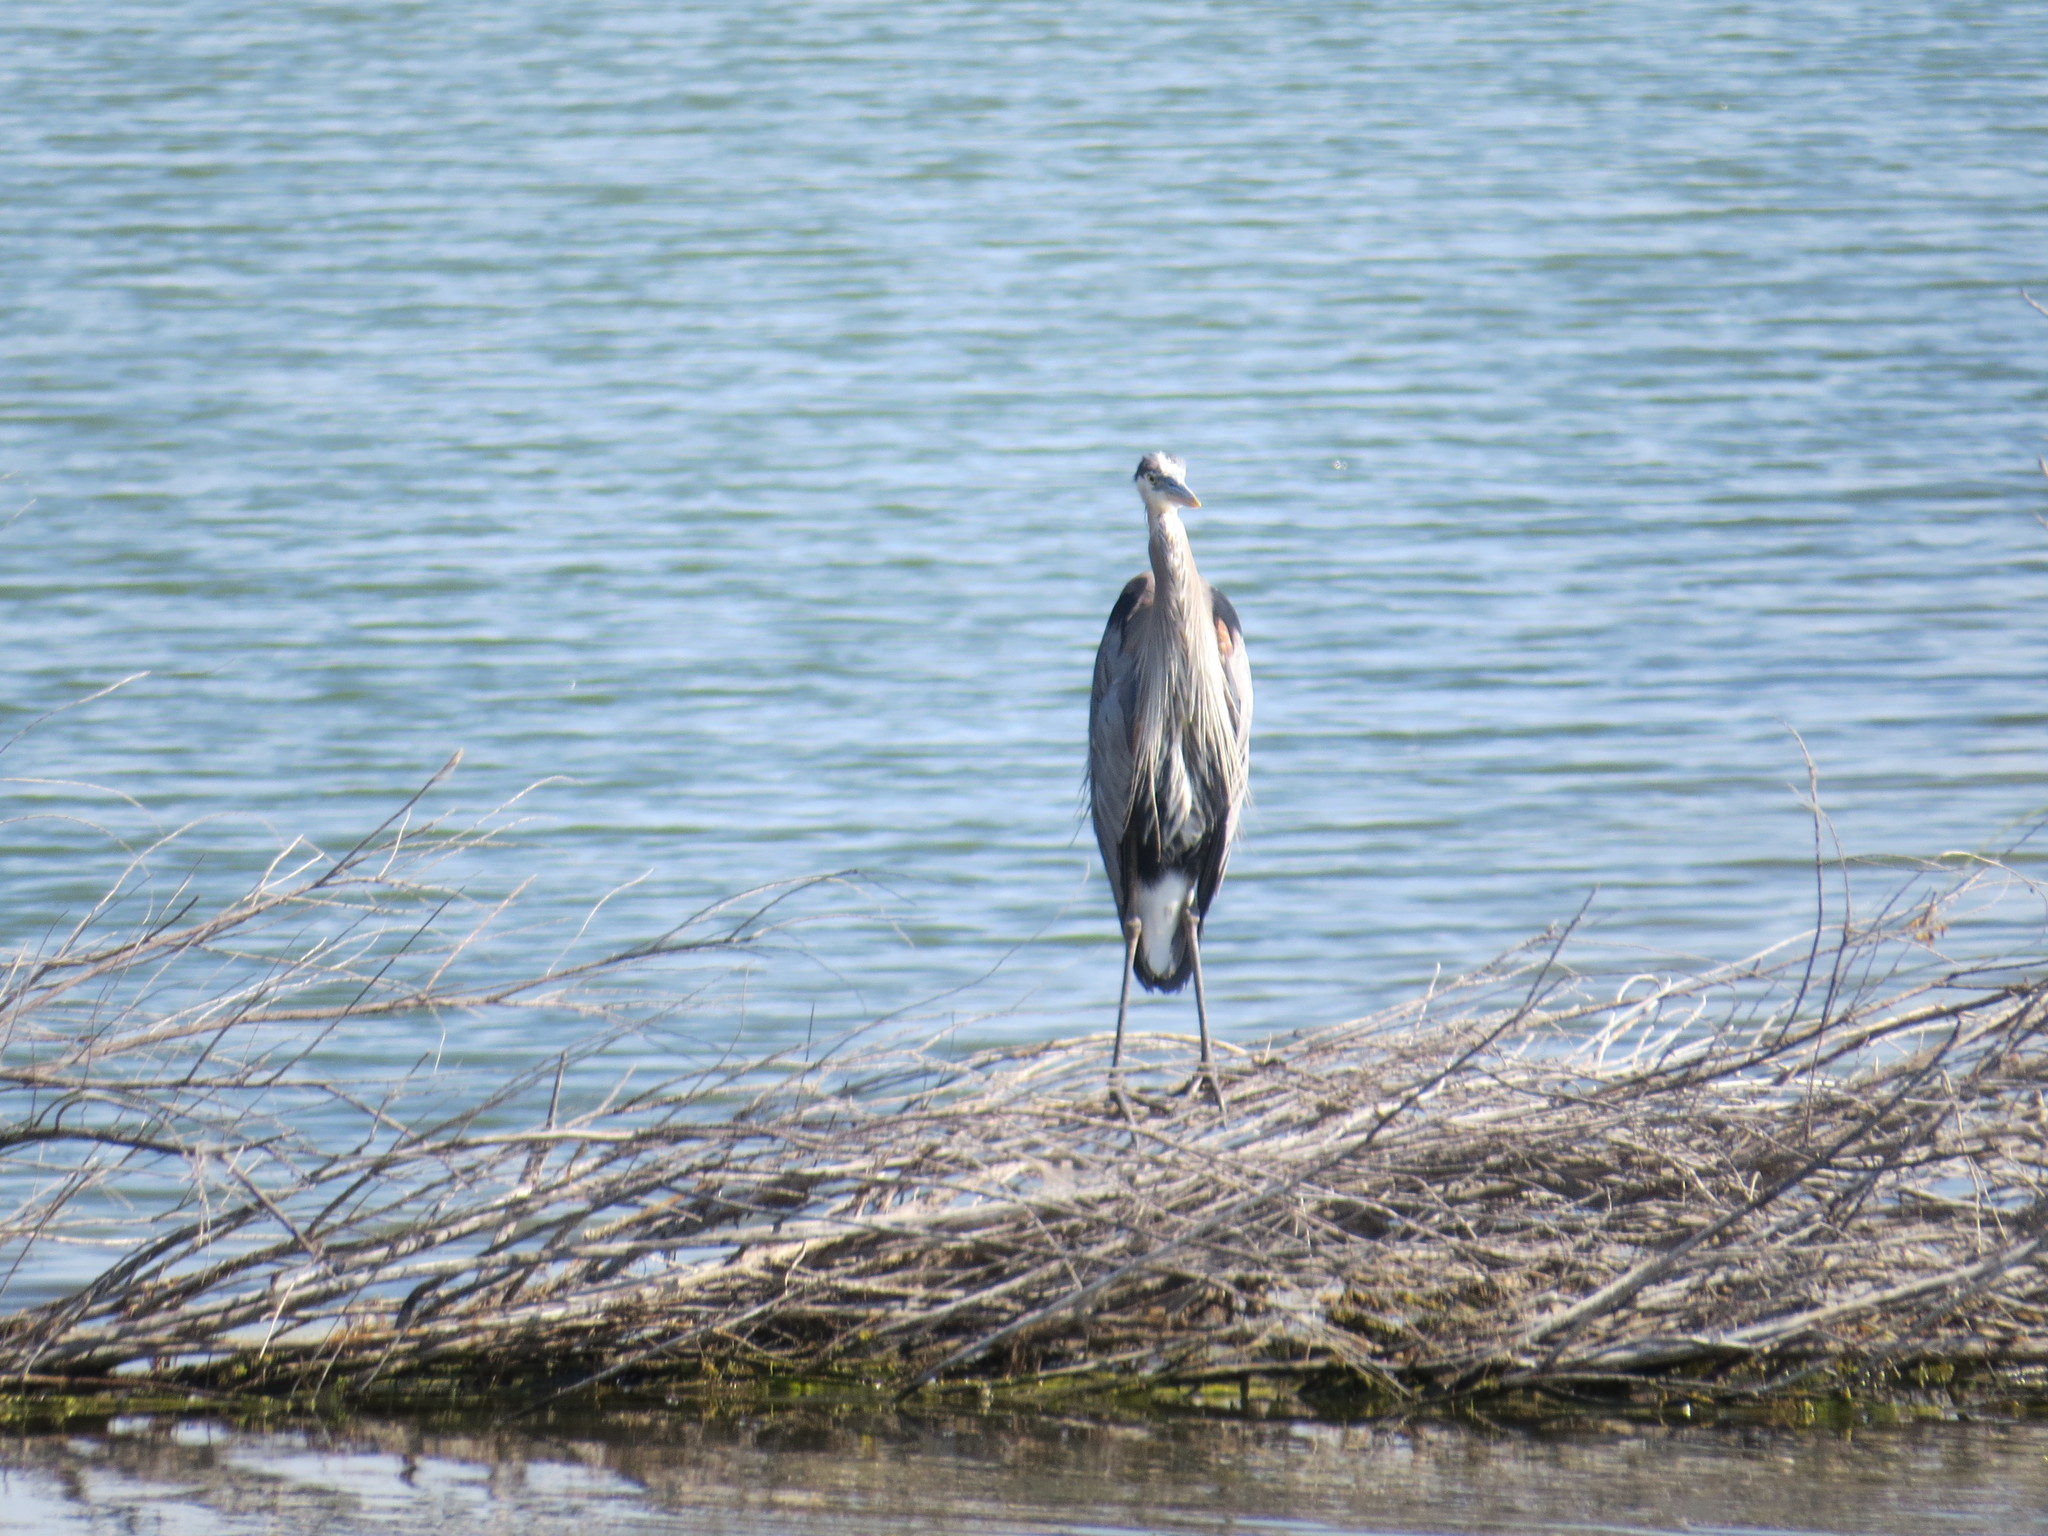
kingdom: Animalia
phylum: Chordata
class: Aves
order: Pelecaniformes
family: Ardeidae
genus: Ardea
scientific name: Ardea herodias
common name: Great blue heron
